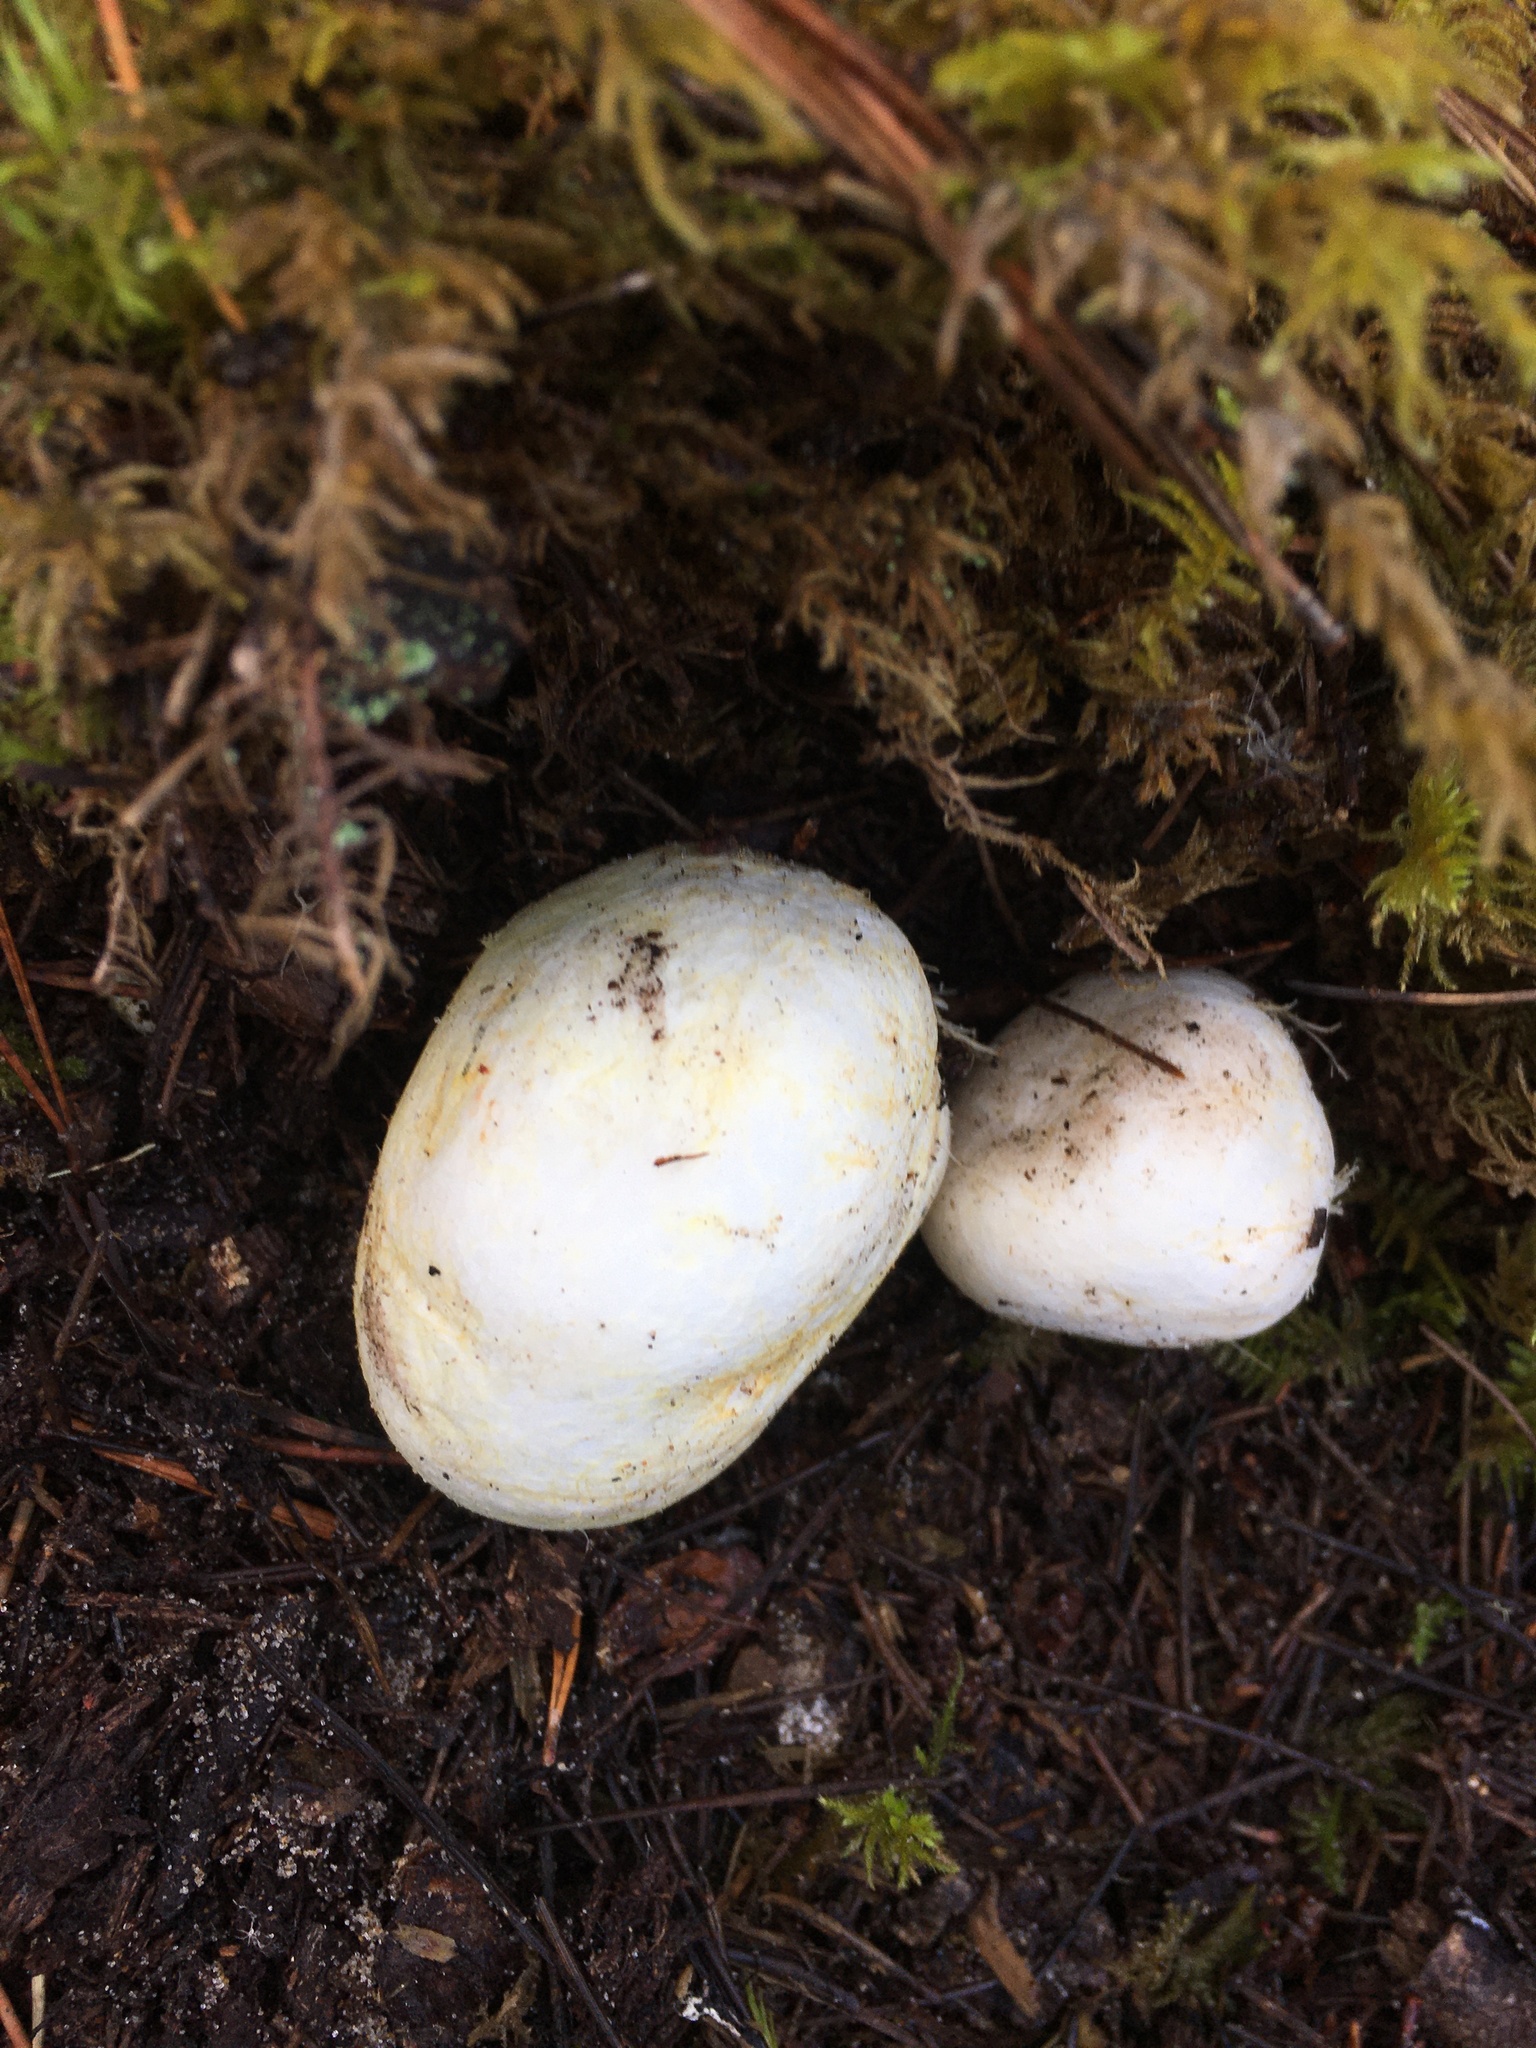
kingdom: Fungi
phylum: Basidiomycota
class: Agaricomycetes
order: Boletales
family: Rhizopogonaceae
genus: Rhizopogon
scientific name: Rhizopogon occidentalis
